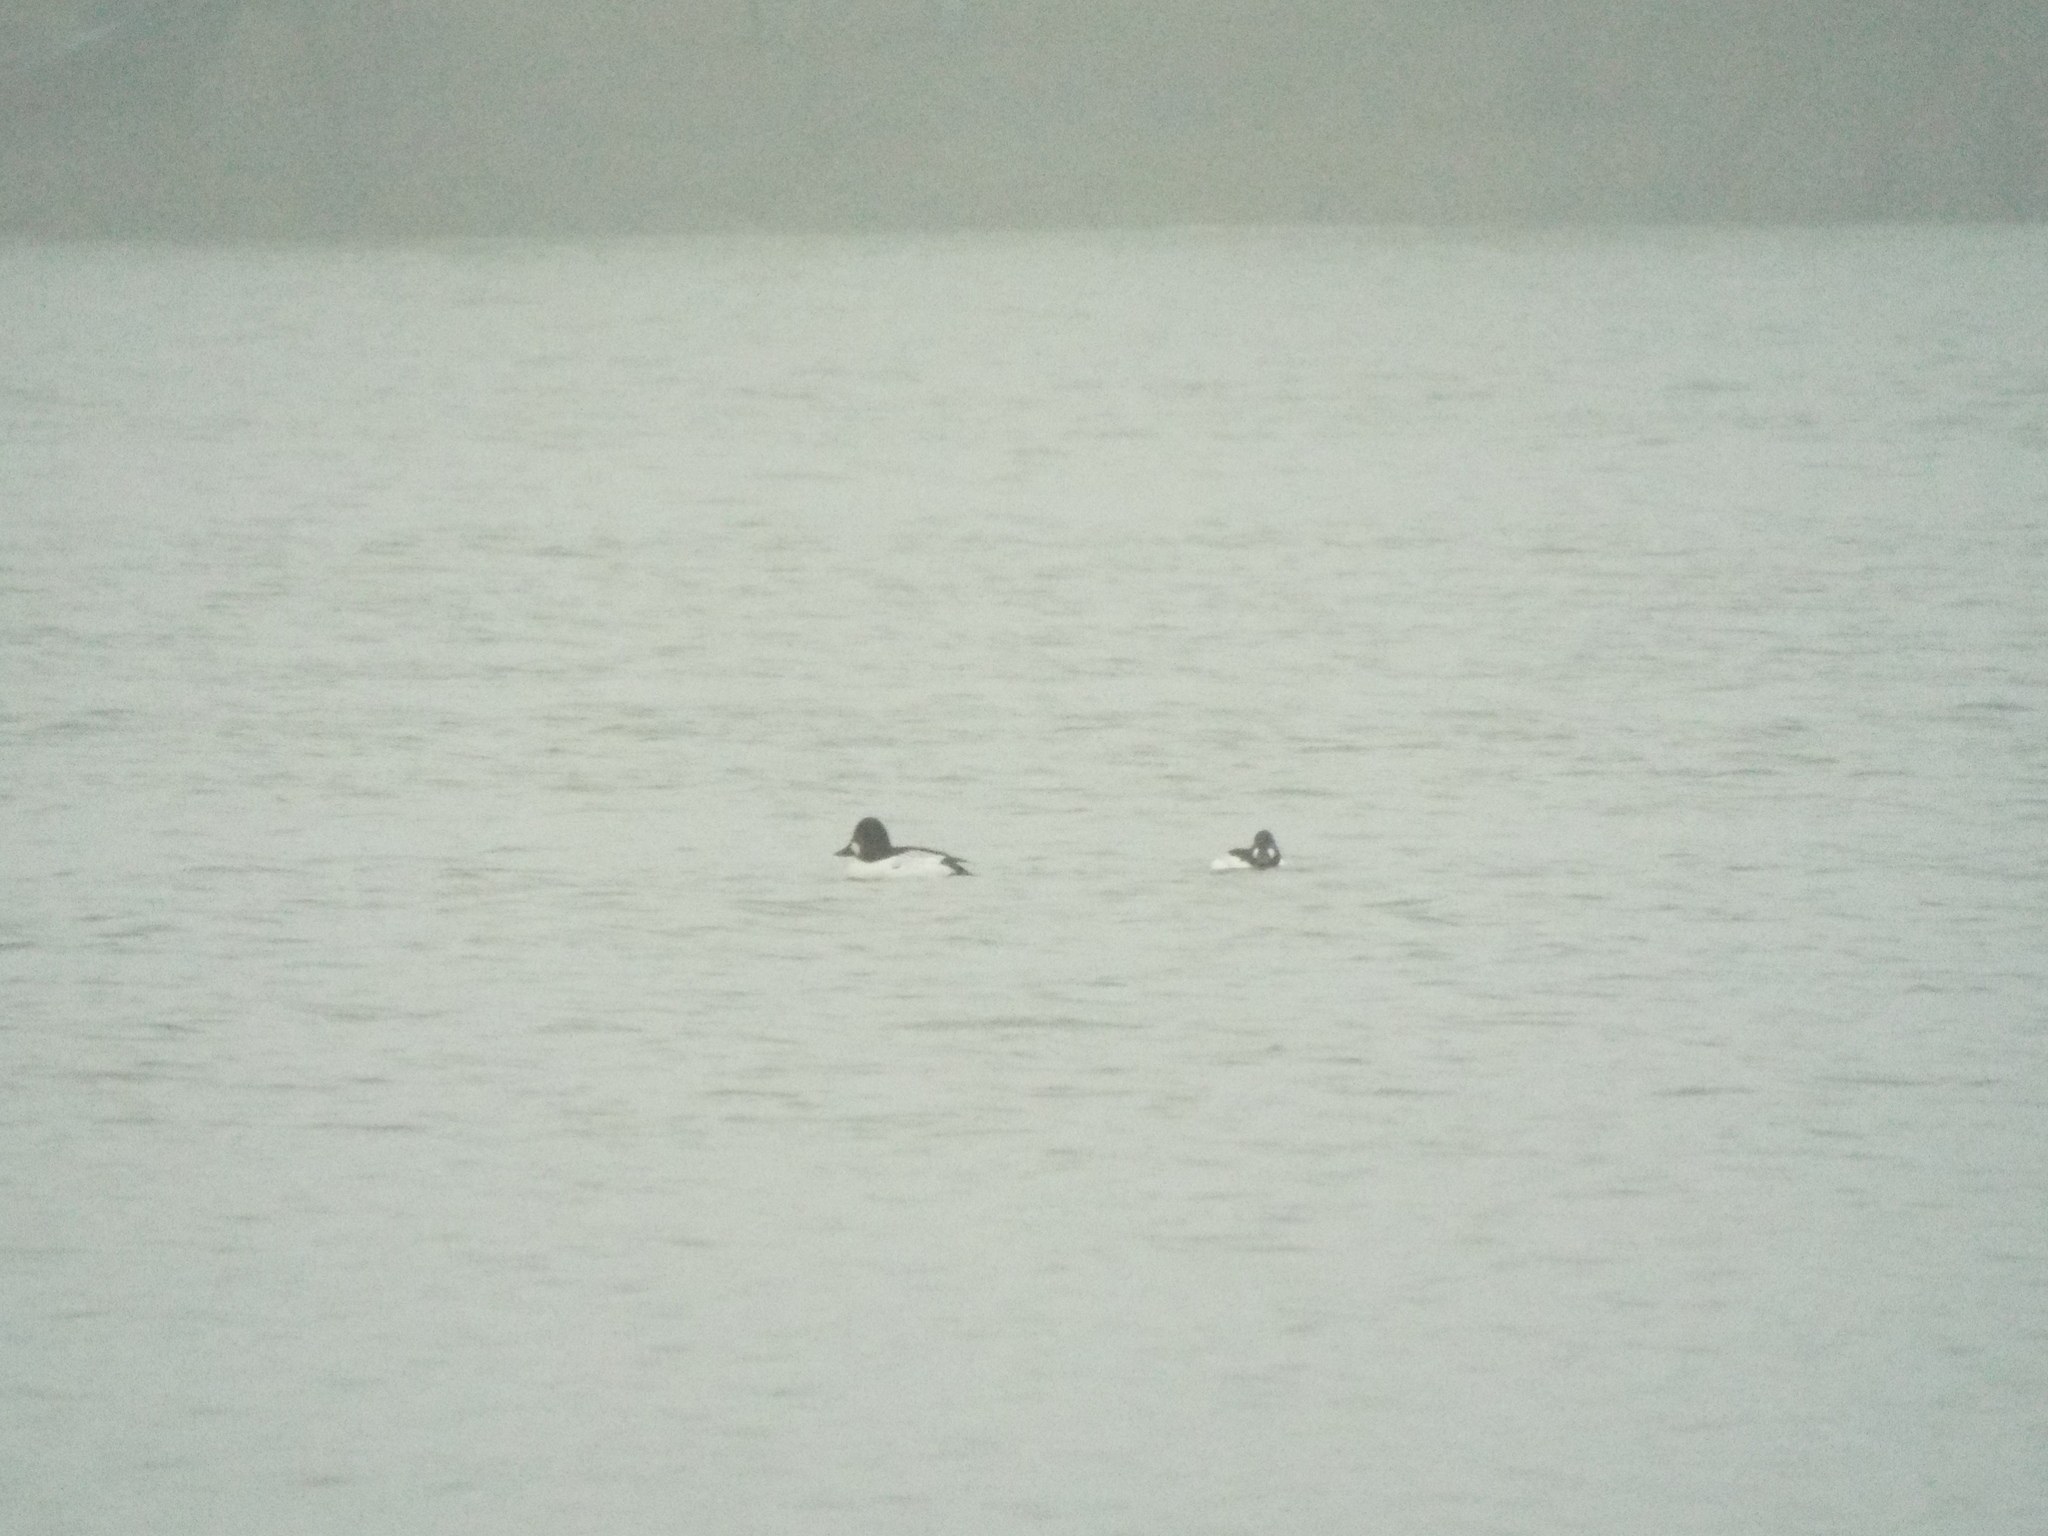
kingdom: Animalia
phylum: Chordata
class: Aves
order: Anseriformes
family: Anatidae
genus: Bucephala
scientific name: Bucephala clangula
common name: Common goldeneye
